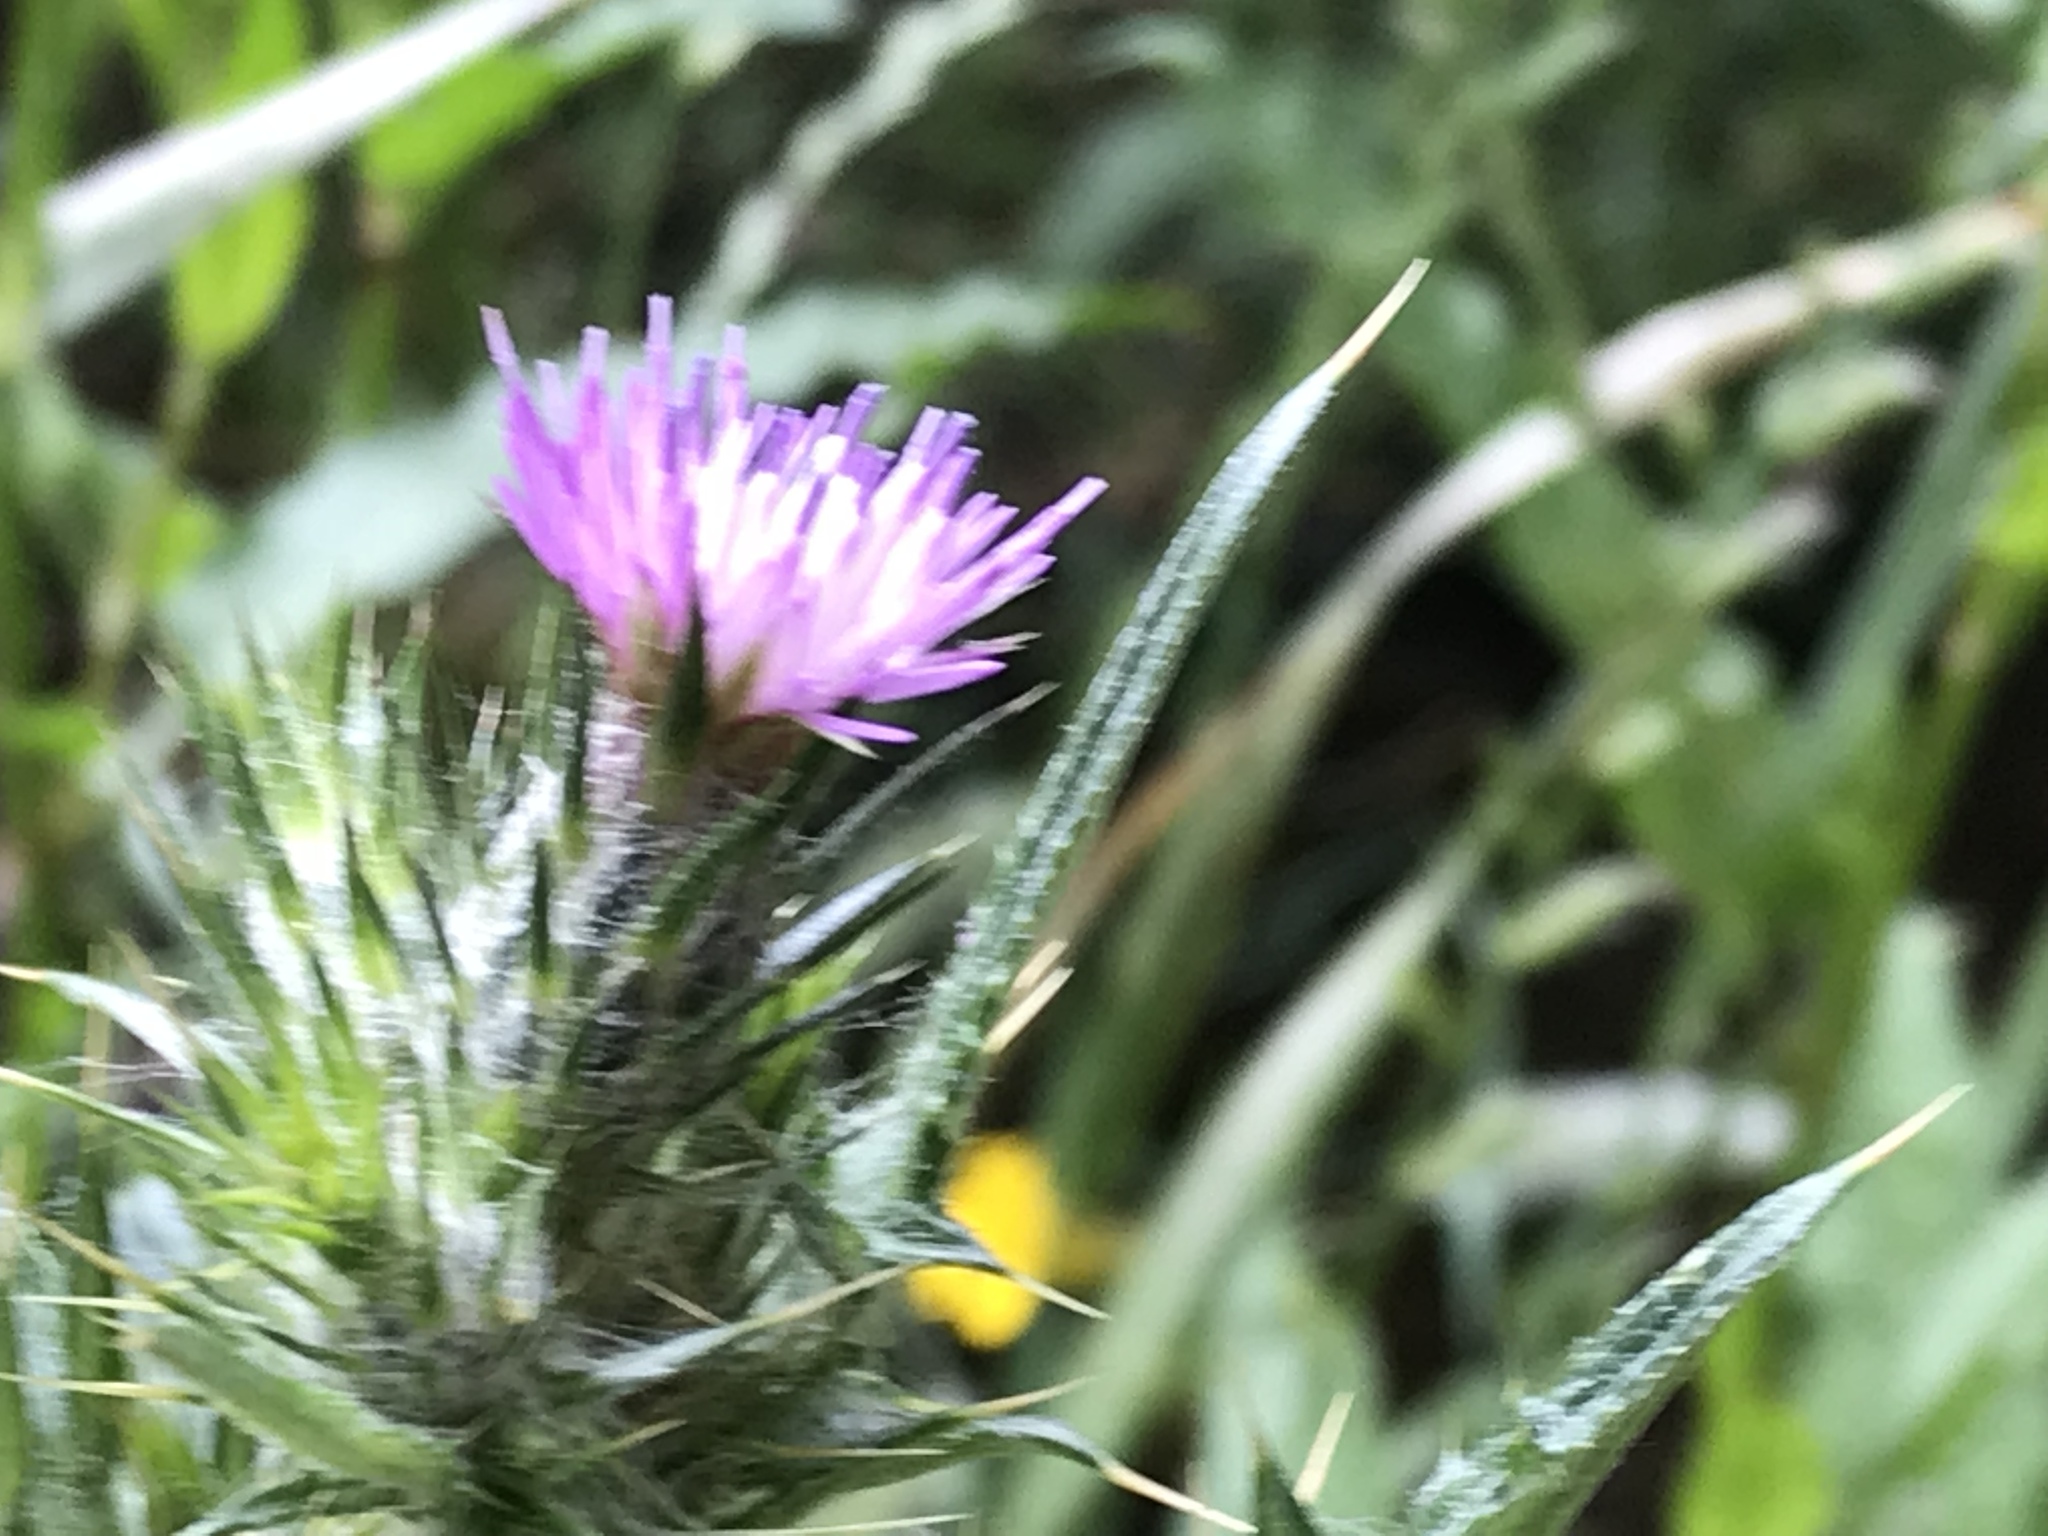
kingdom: Plantae
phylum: Tracheophyta
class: Magnoliopsida
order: Asterales
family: Asteraceae
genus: Carduus
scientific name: Carduus pycnocephalus
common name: Plymouth thistle
